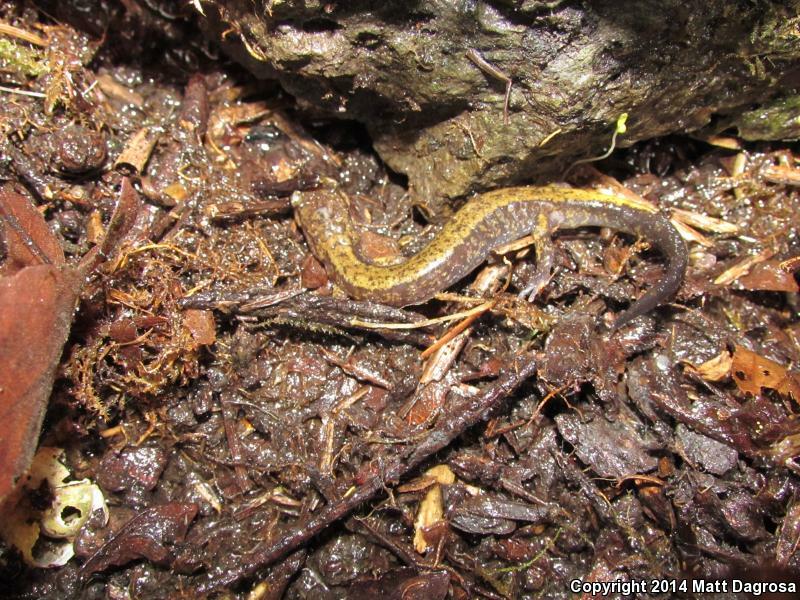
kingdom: Animalia
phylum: Chordata
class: Amphibia
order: Caudata
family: Plethodontidae
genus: Plethodon
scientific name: Plethodon dunni
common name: Dunn's salamander
